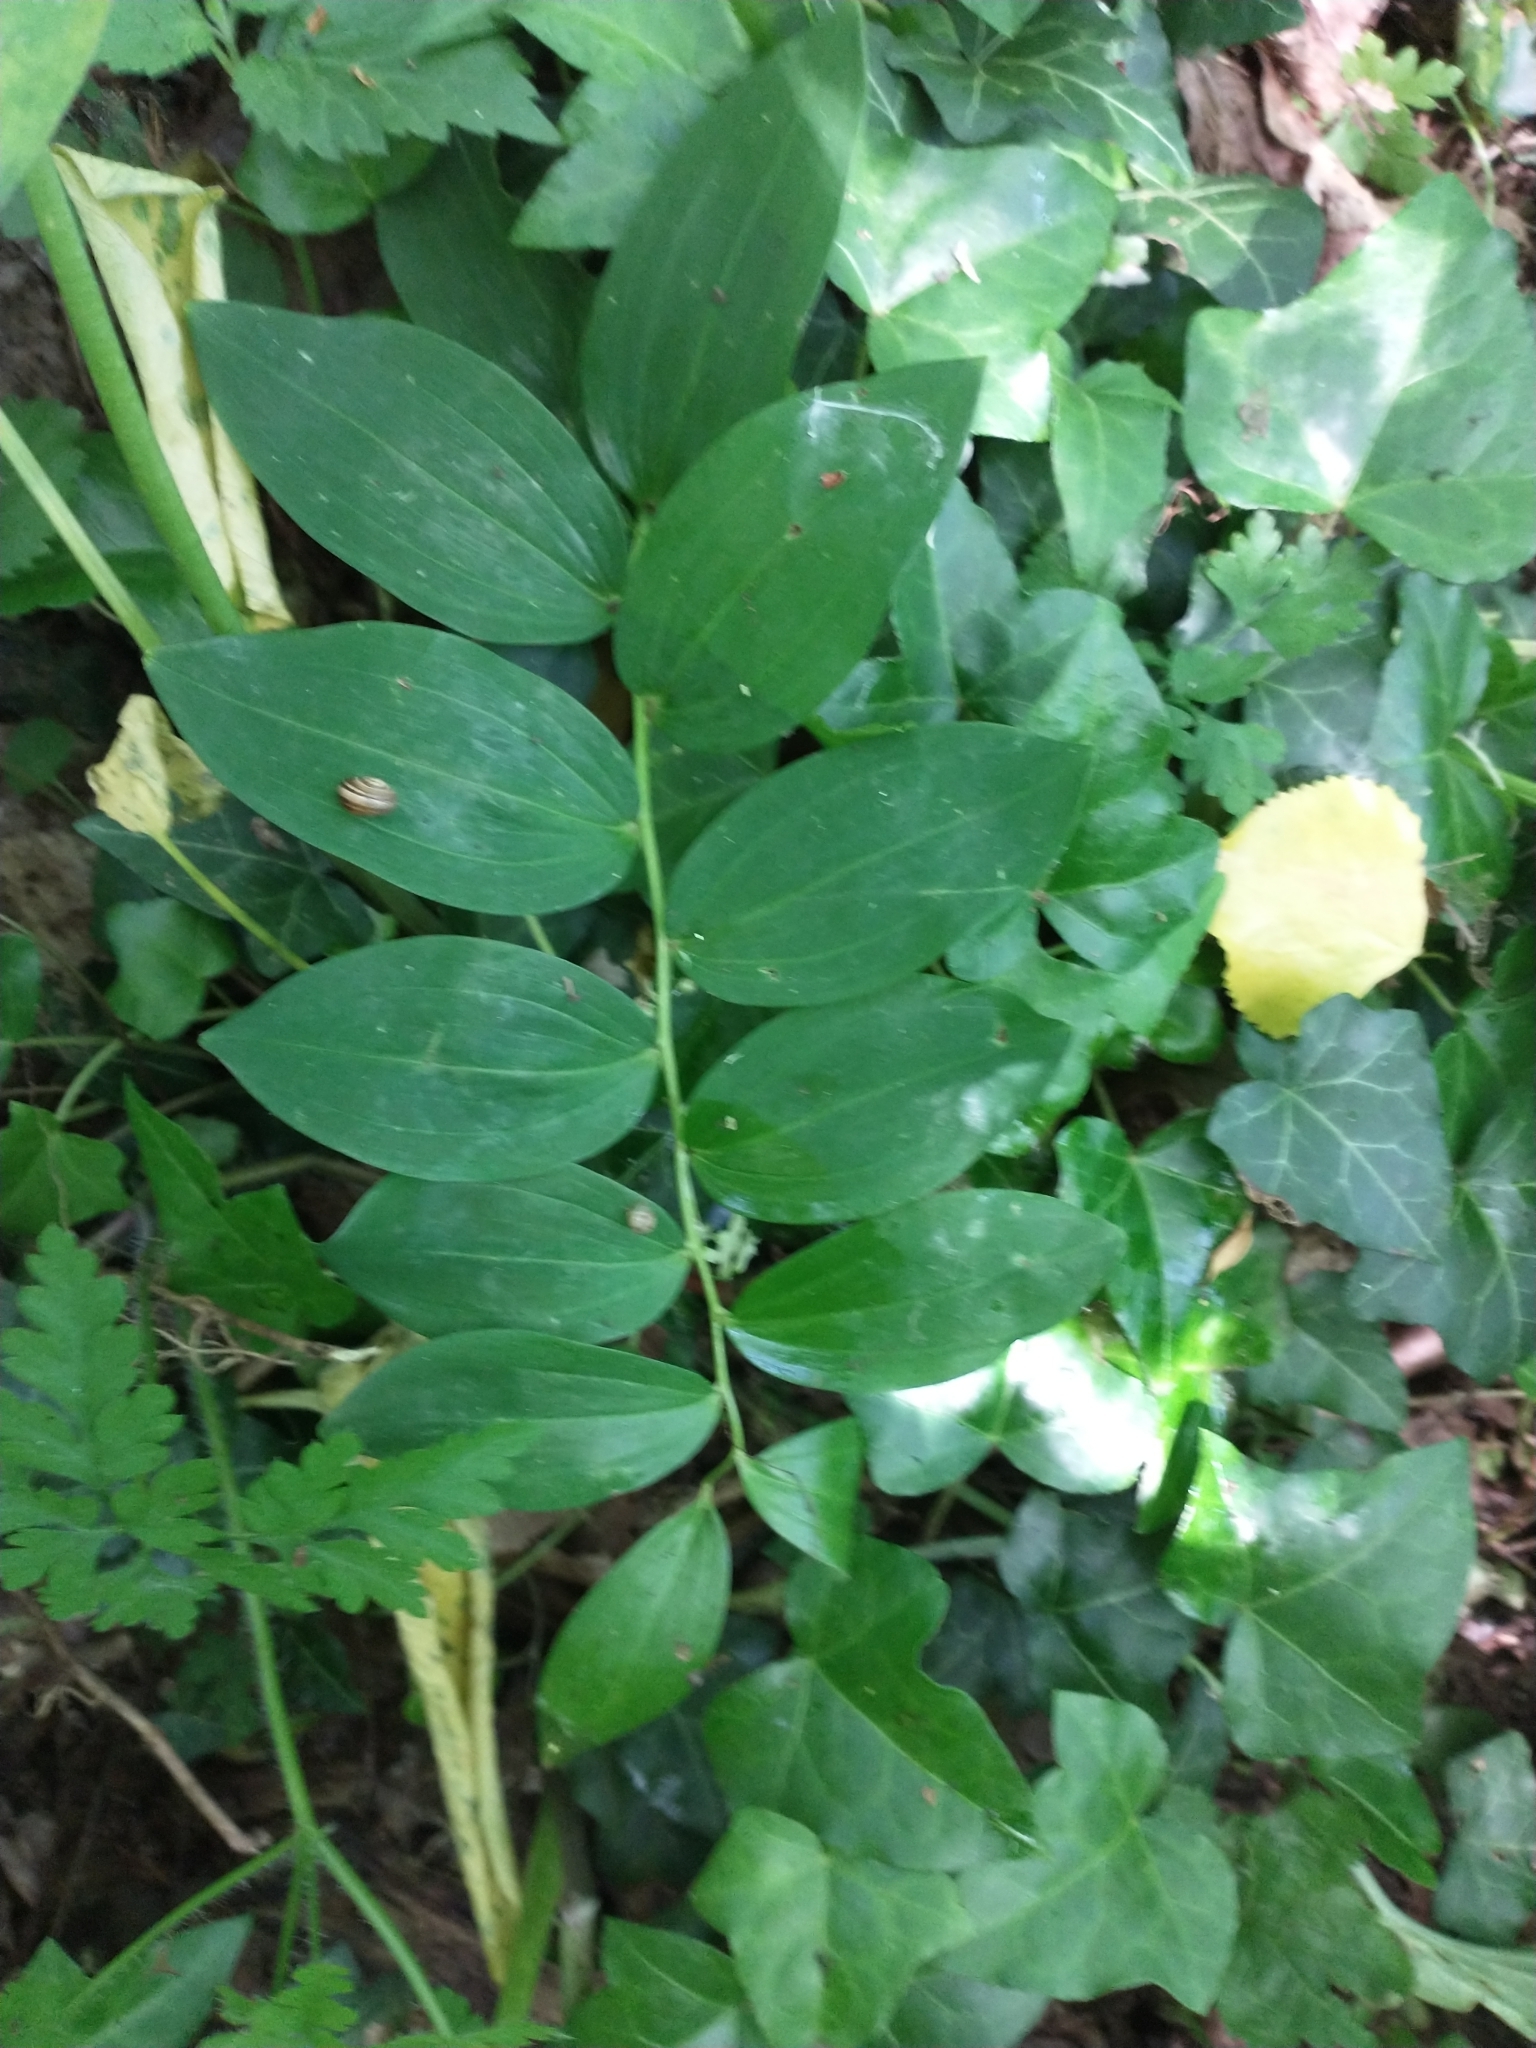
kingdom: Plantae
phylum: Tracheophyta
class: Liliopsida
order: Asparagales
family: Asparagaceae
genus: Polygonatum
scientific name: Polygonatum multiflorum
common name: Solomon's-seal
